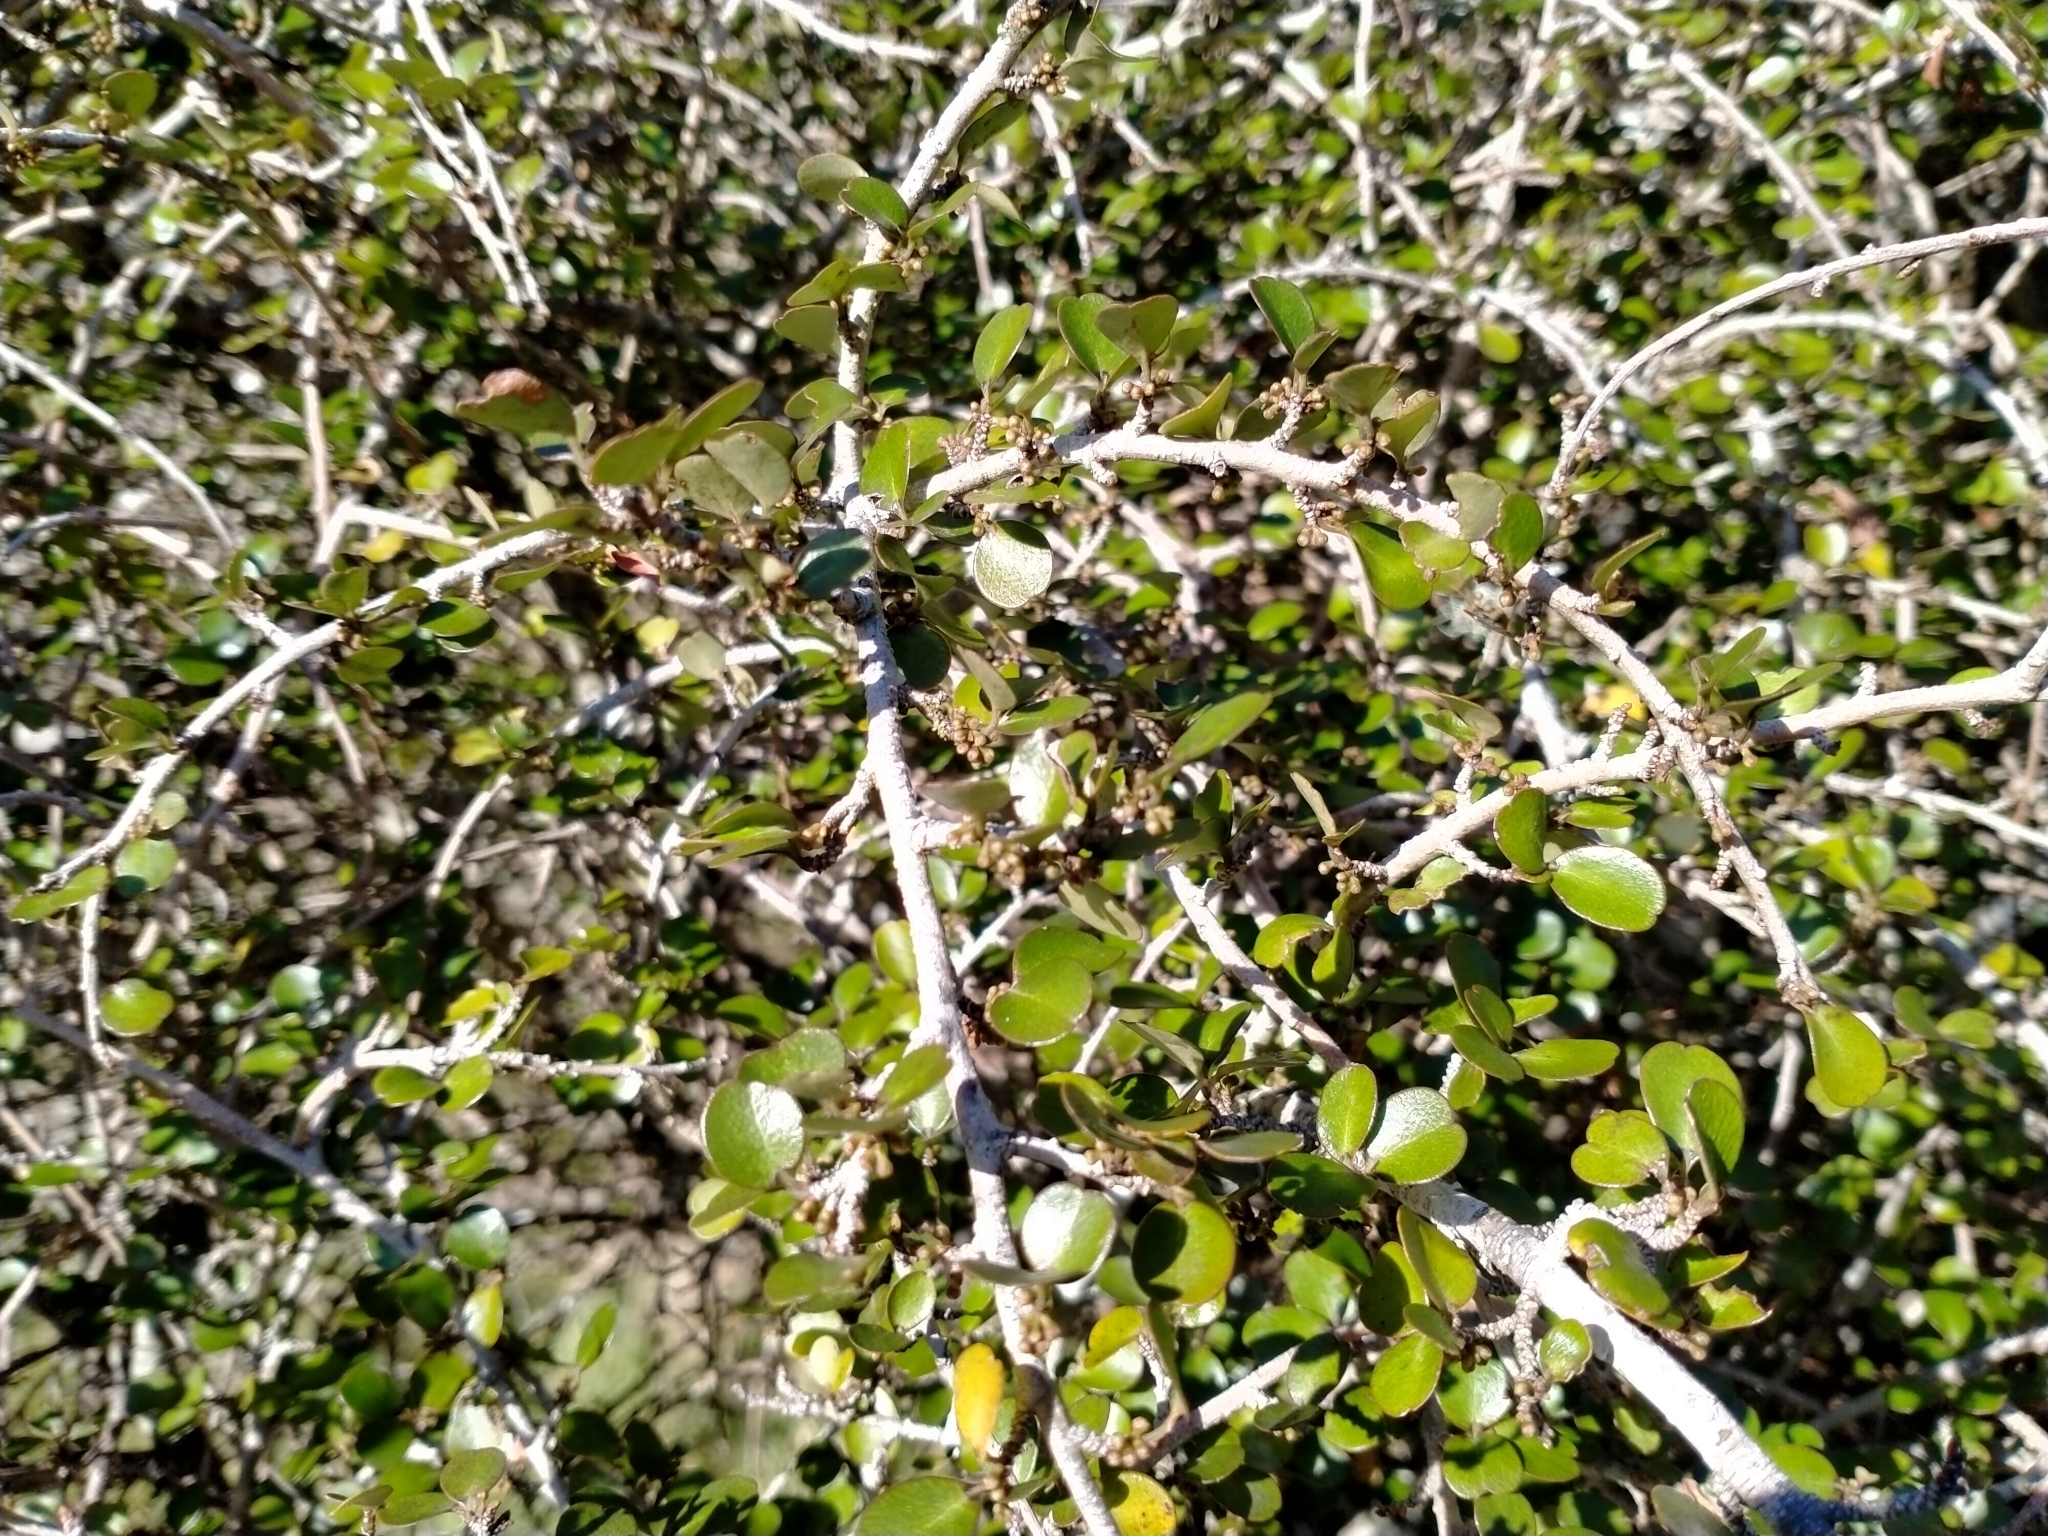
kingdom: Plantae
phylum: Tracheophyta
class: Magnoliopsida
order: Ericales
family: Primulaceae
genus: Myrsine
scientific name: Myrsine divaricata
